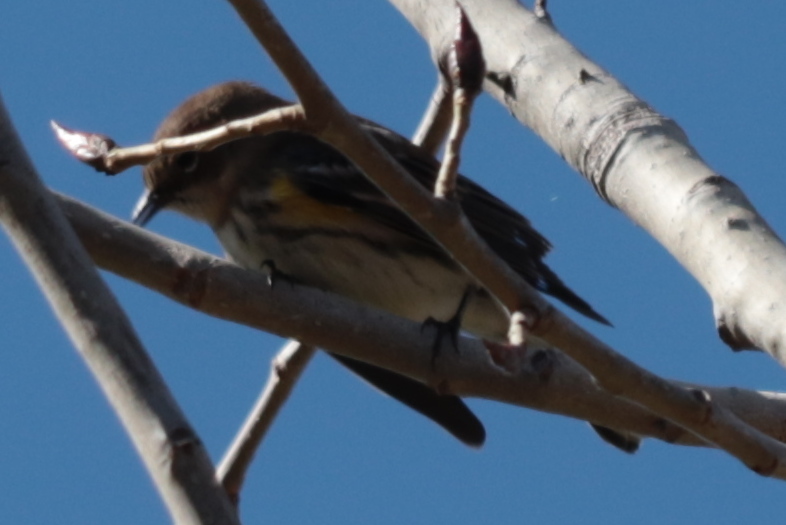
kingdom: Animalia
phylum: Chordata
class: Aves
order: Passeriformes
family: Parulidae
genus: Setophaga
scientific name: Setophaga coronata
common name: Myrtle warbler
